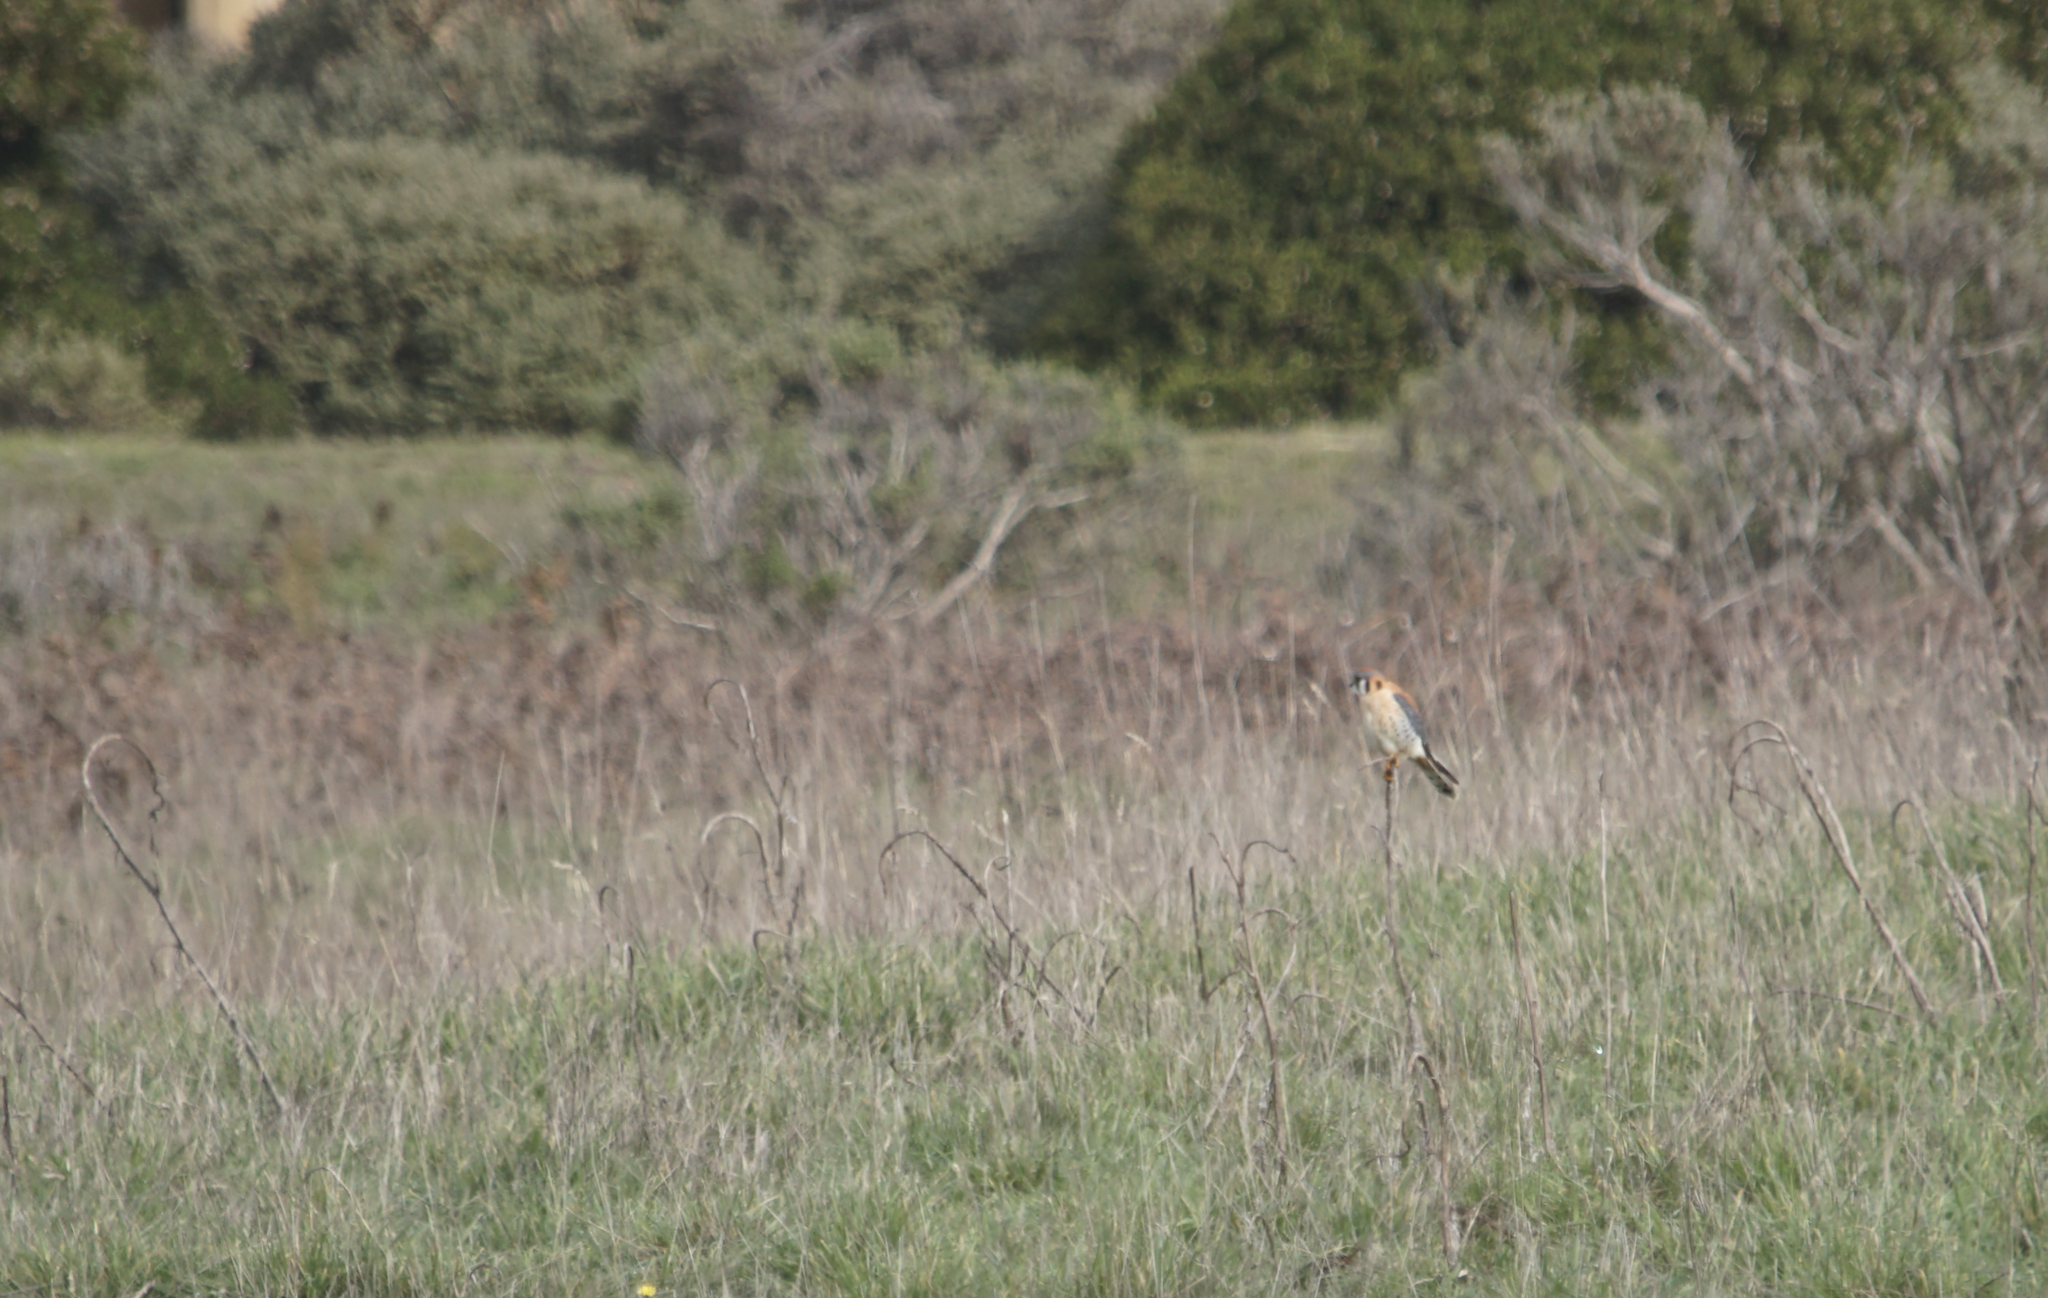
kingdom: Animalia
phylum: Chordata
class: Aves
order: Falconiformes
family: Falconidae
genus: Falco
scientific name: Falco sparverius
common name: American kestrel
